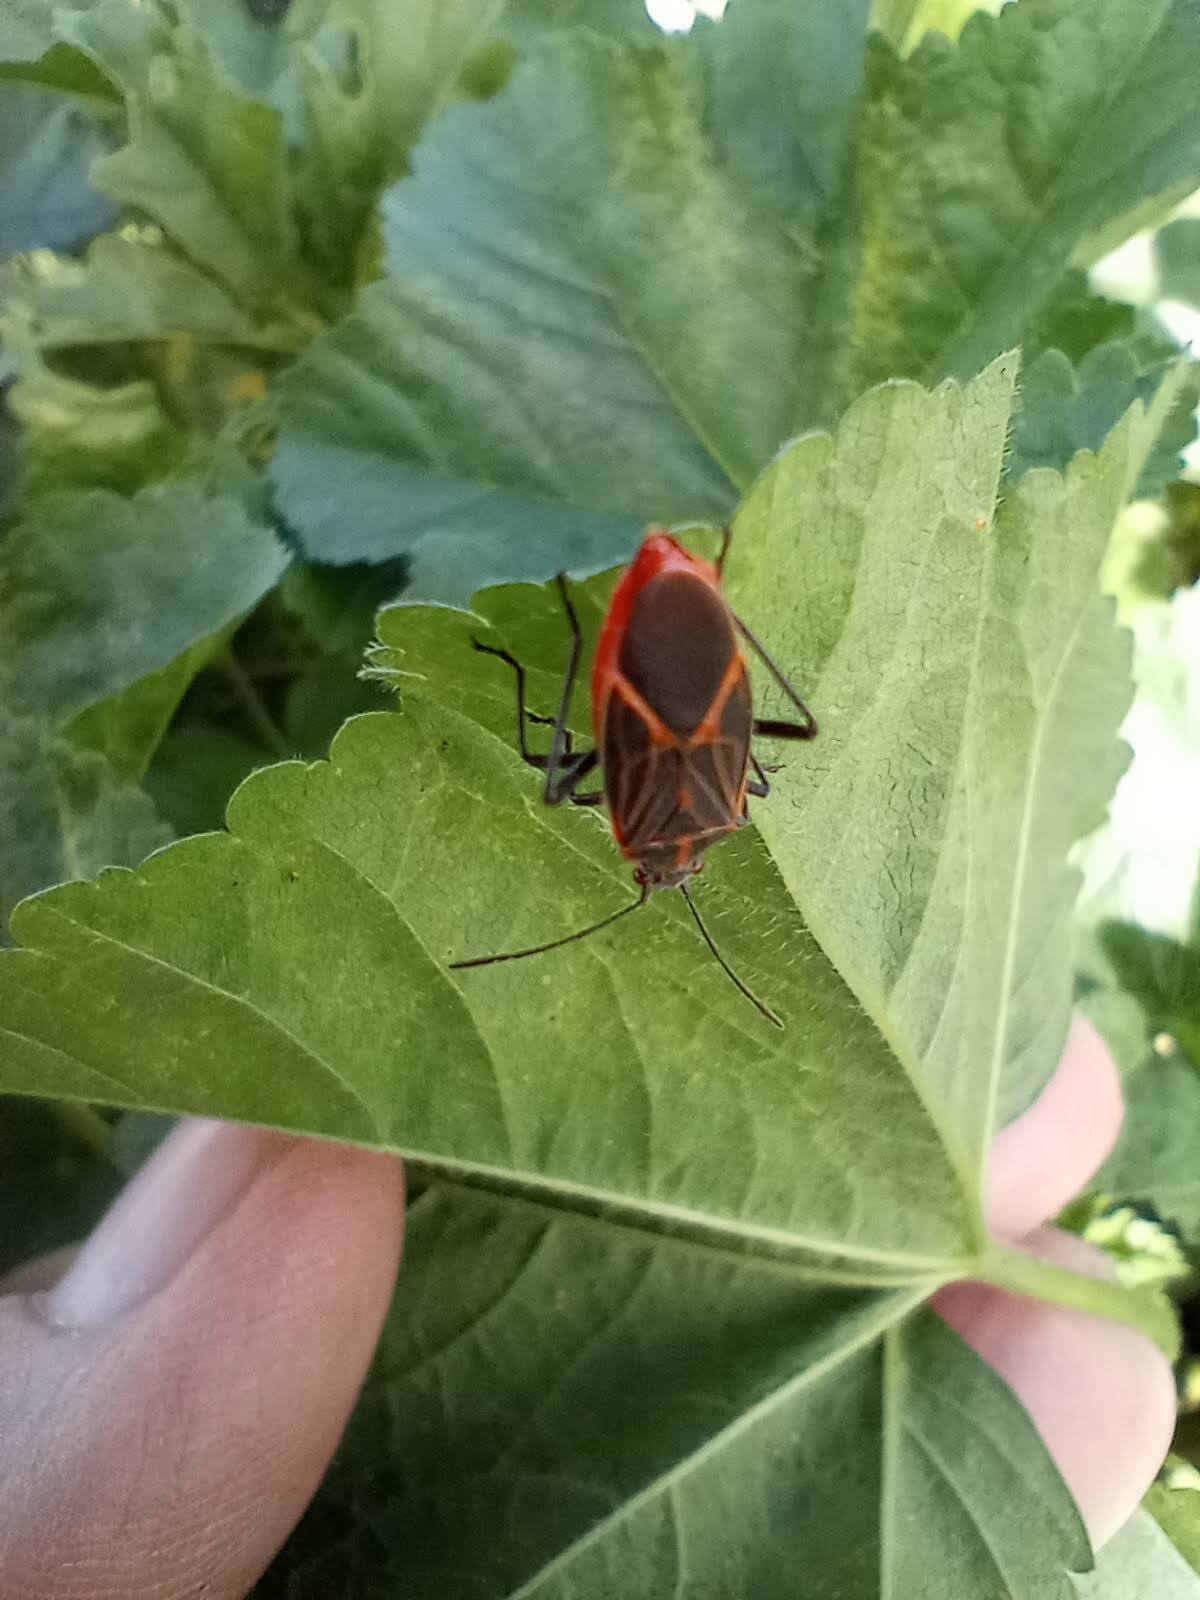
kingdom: Animalia
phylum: Arthropoda
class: Insecta
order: Hemiptera
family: Rhopalidae
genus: Boisea
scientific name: Boisea rubrolineata
